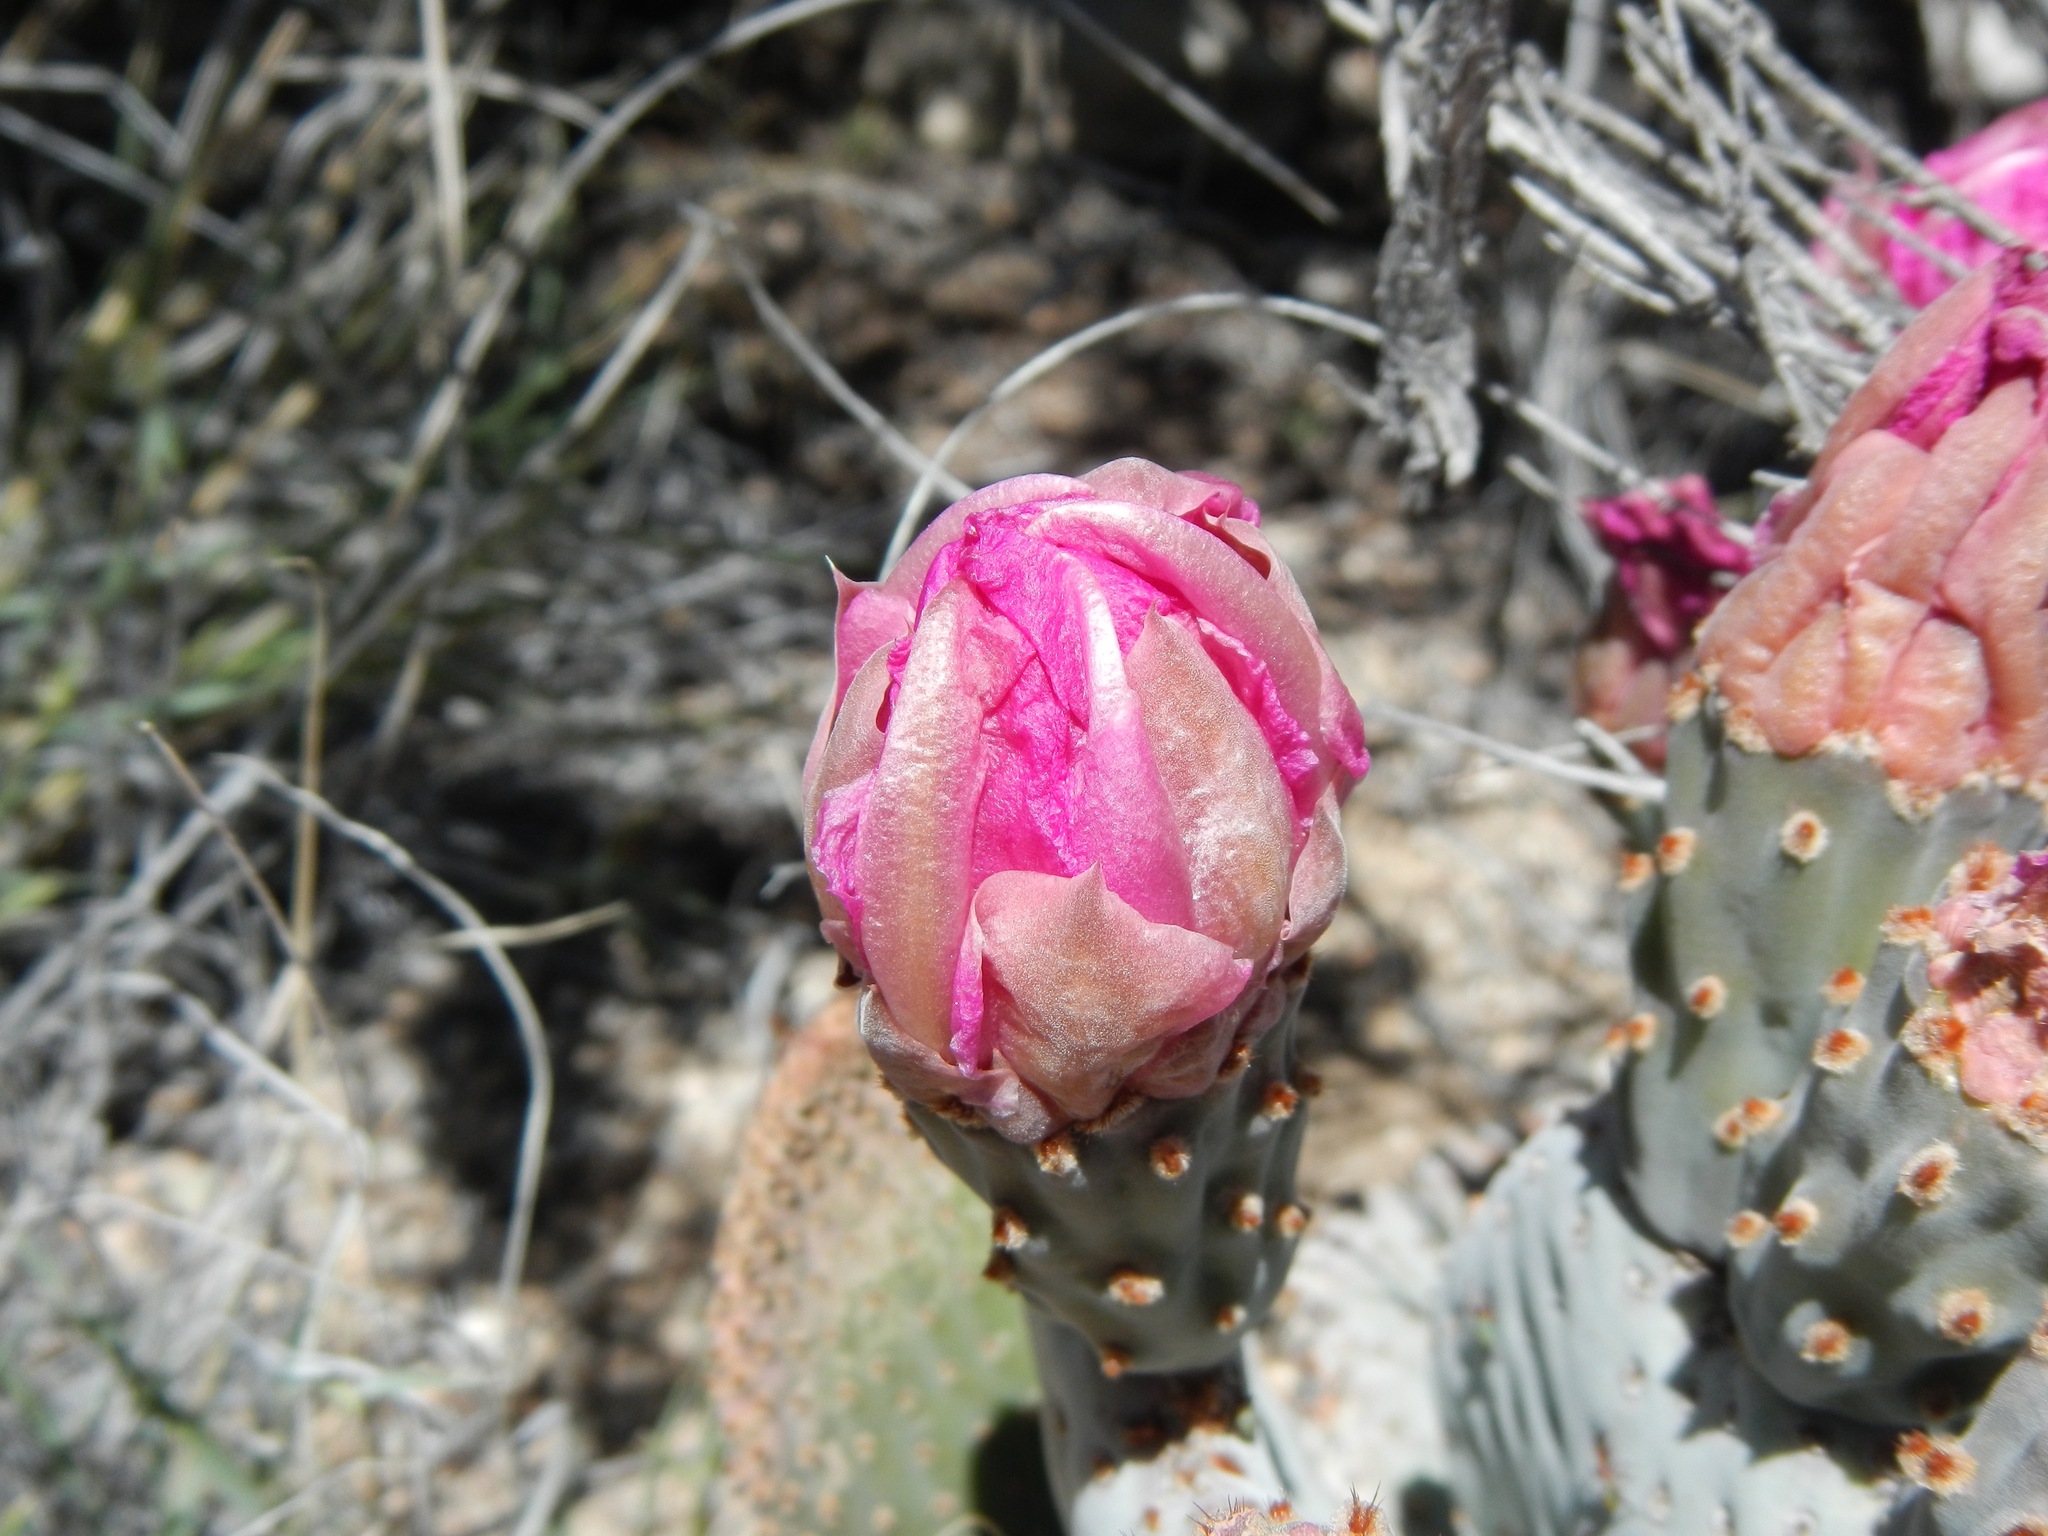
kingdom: Plantae
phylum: Tracheophyta
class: Magnoliopsida
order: Caryophyllales
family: Cactaceae
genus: Opuntia
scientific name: Opuntia basilaris
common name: Beavertail prickly-pear
